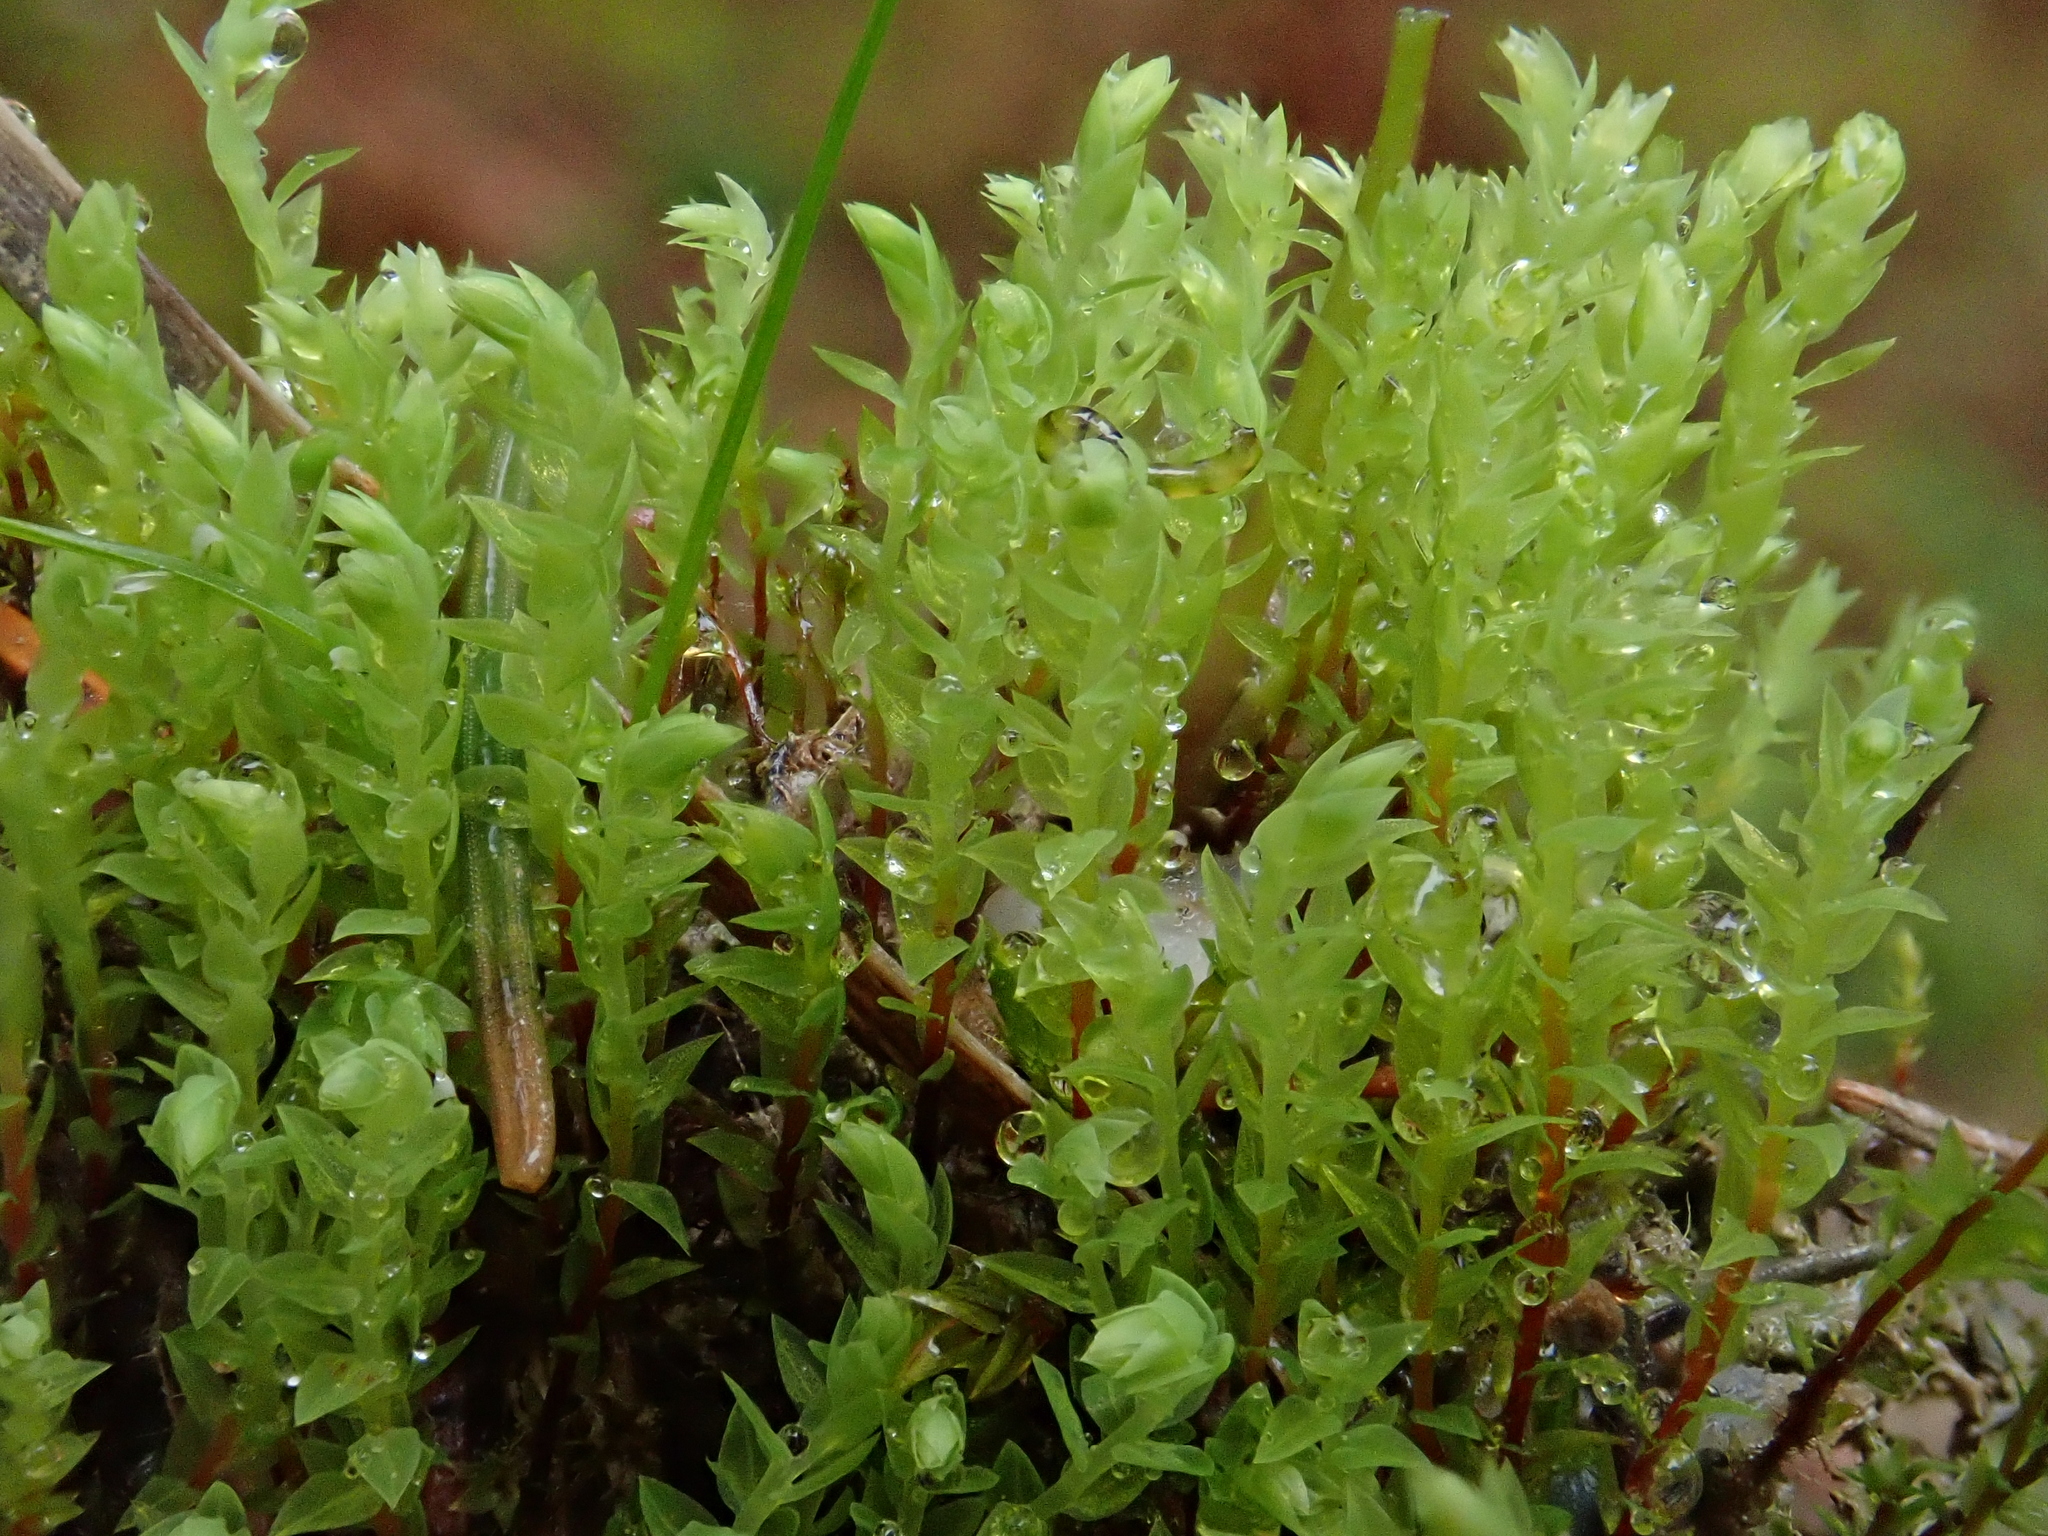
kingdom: Plantae
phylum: Bryophyta
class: Bryopsida
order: Bryales
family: Mniaceae
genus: Pohlia
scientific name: Pohlia wahlenbergii
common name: Wahlenberg's nodding moss
